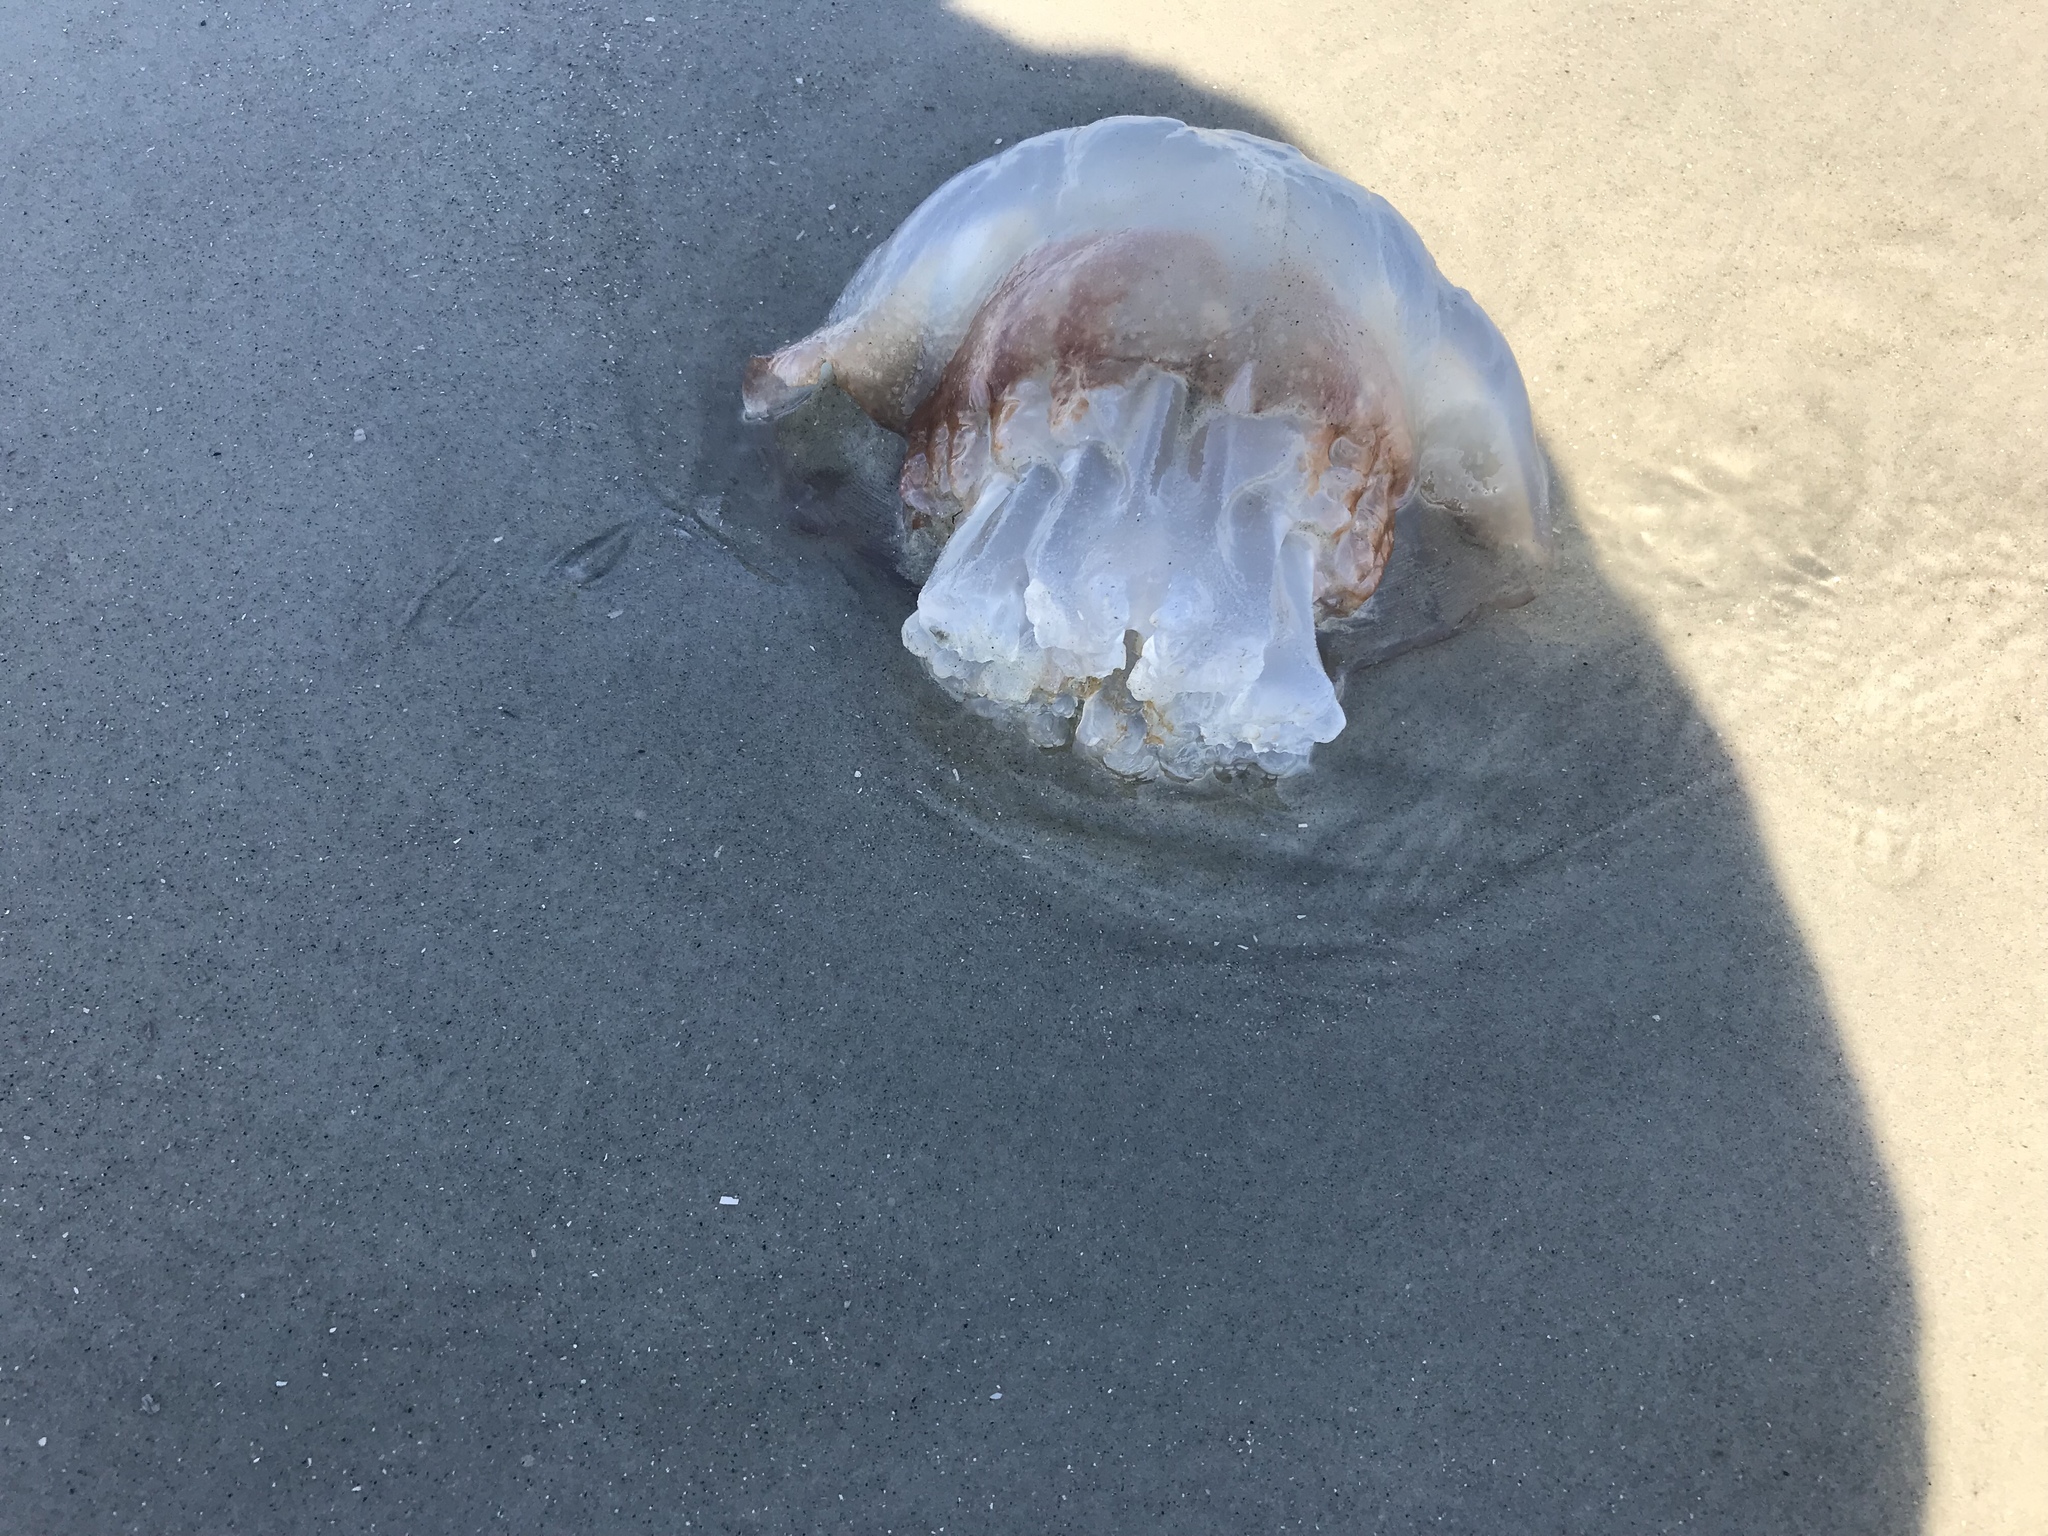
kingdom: Animalia
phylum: Cnidaria
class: Scyphozoa
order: Rhizostomeae
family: Stomolophidae
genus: Stomolophus
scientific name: Stomolophus meleagris
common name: Cabbagehead
